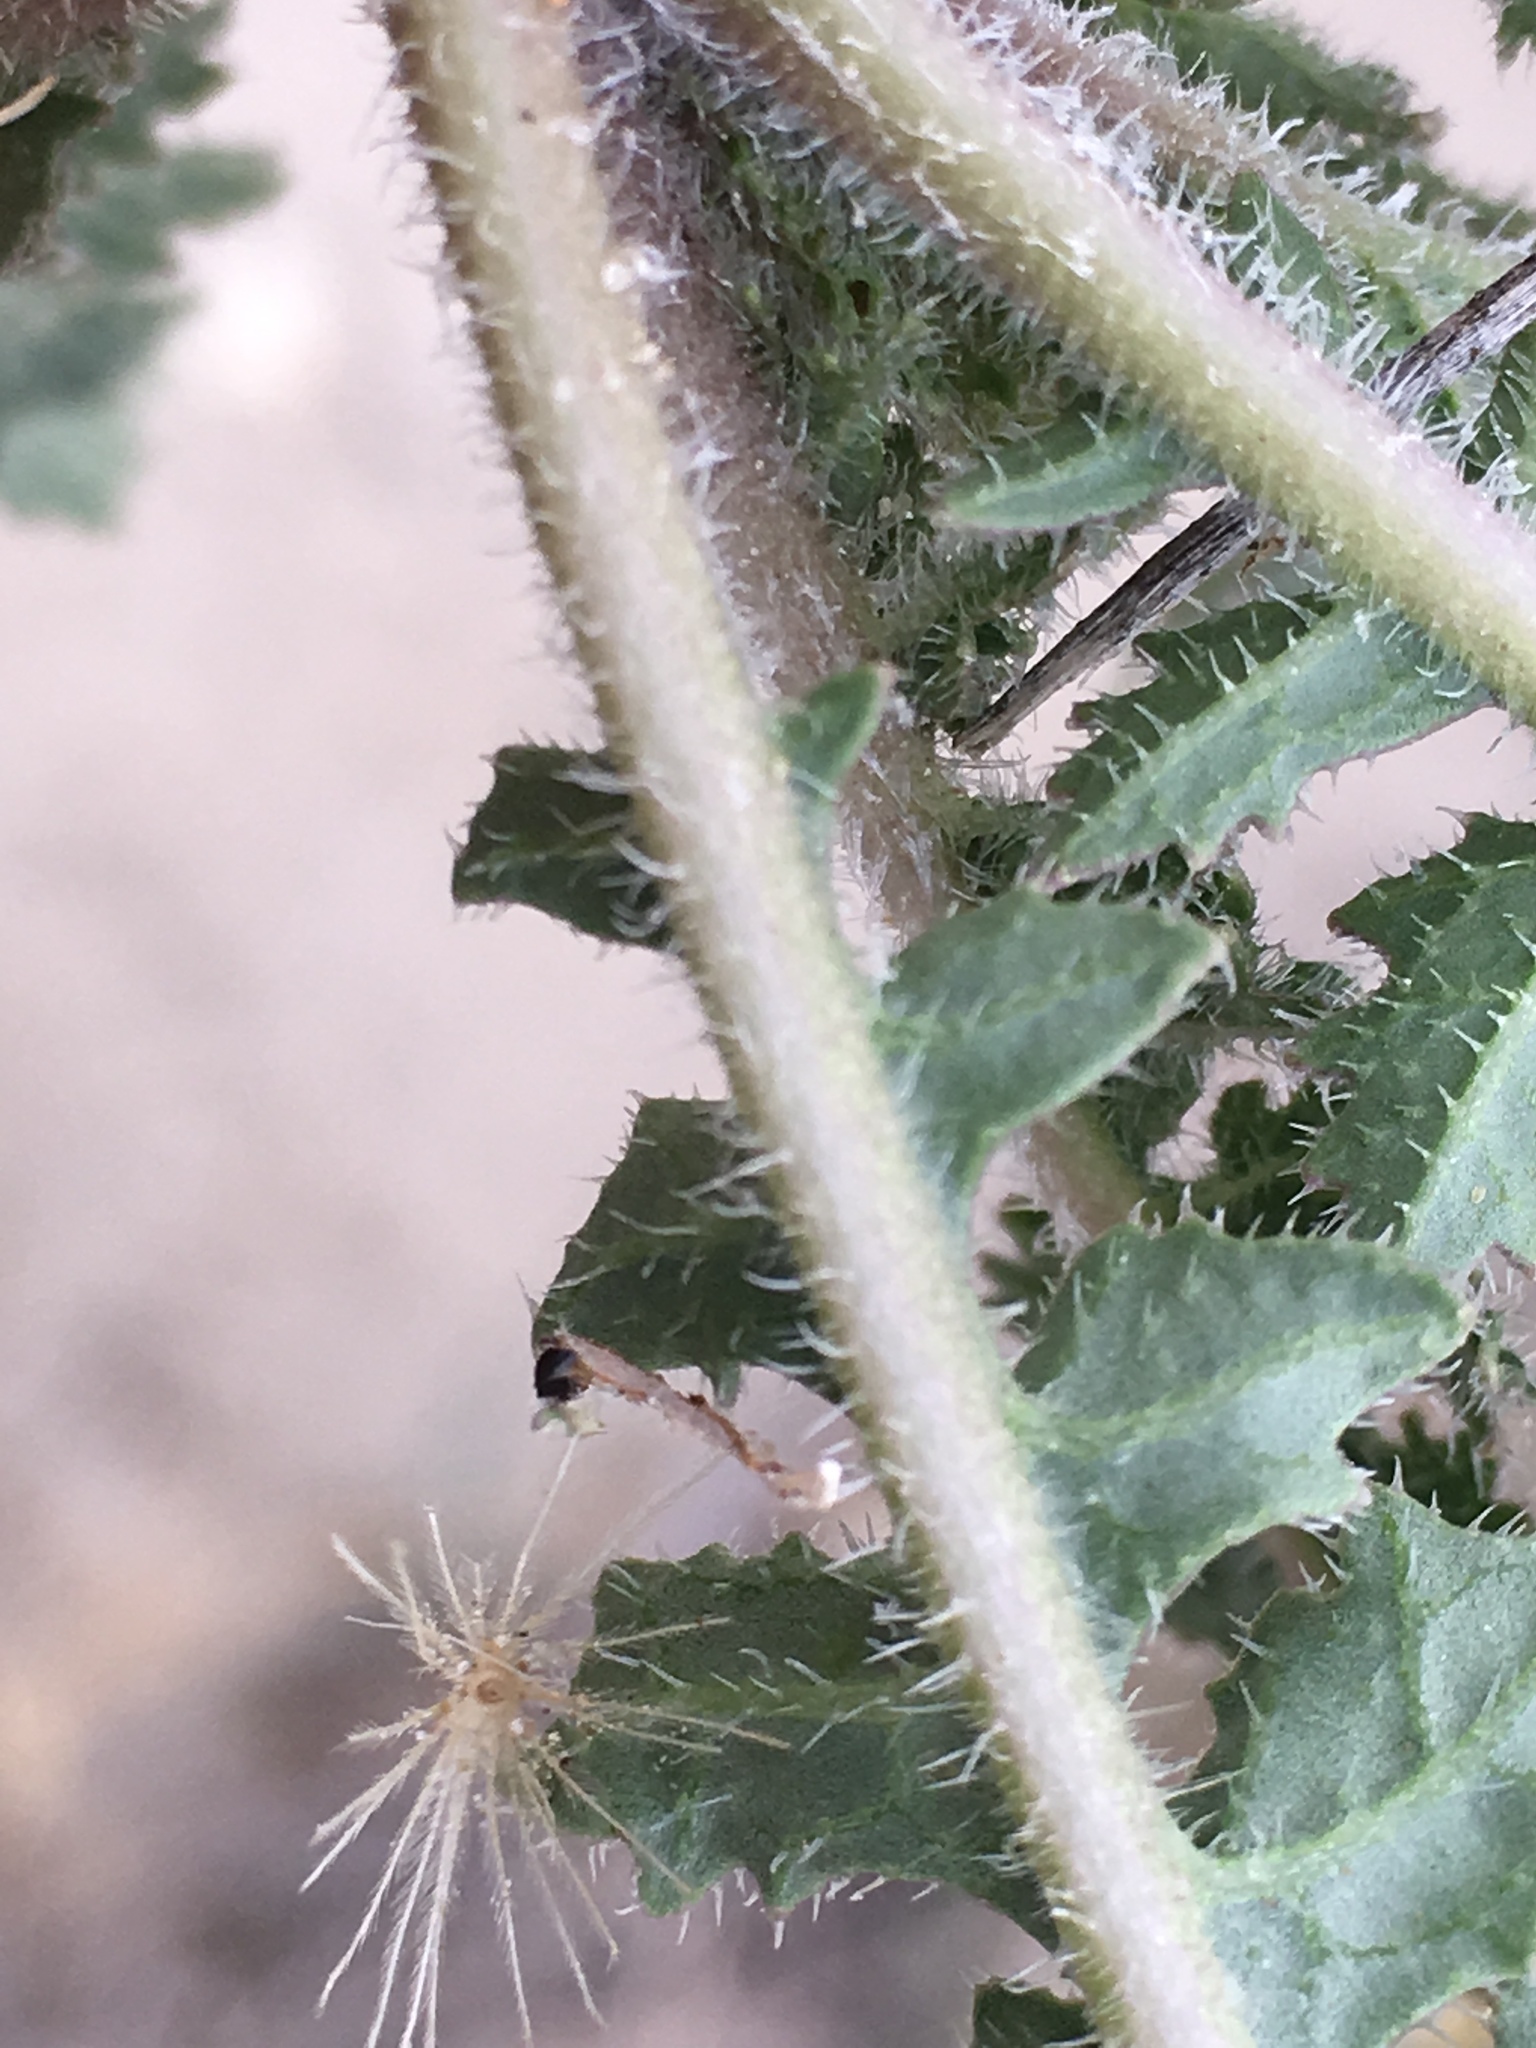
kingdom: Plantae
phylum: Tracheophyta
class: Magnoliopsida
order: Brassicales
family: Brassicaceae
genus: Brassica
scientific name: Brassica tournefortii
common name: Pale cabbage
